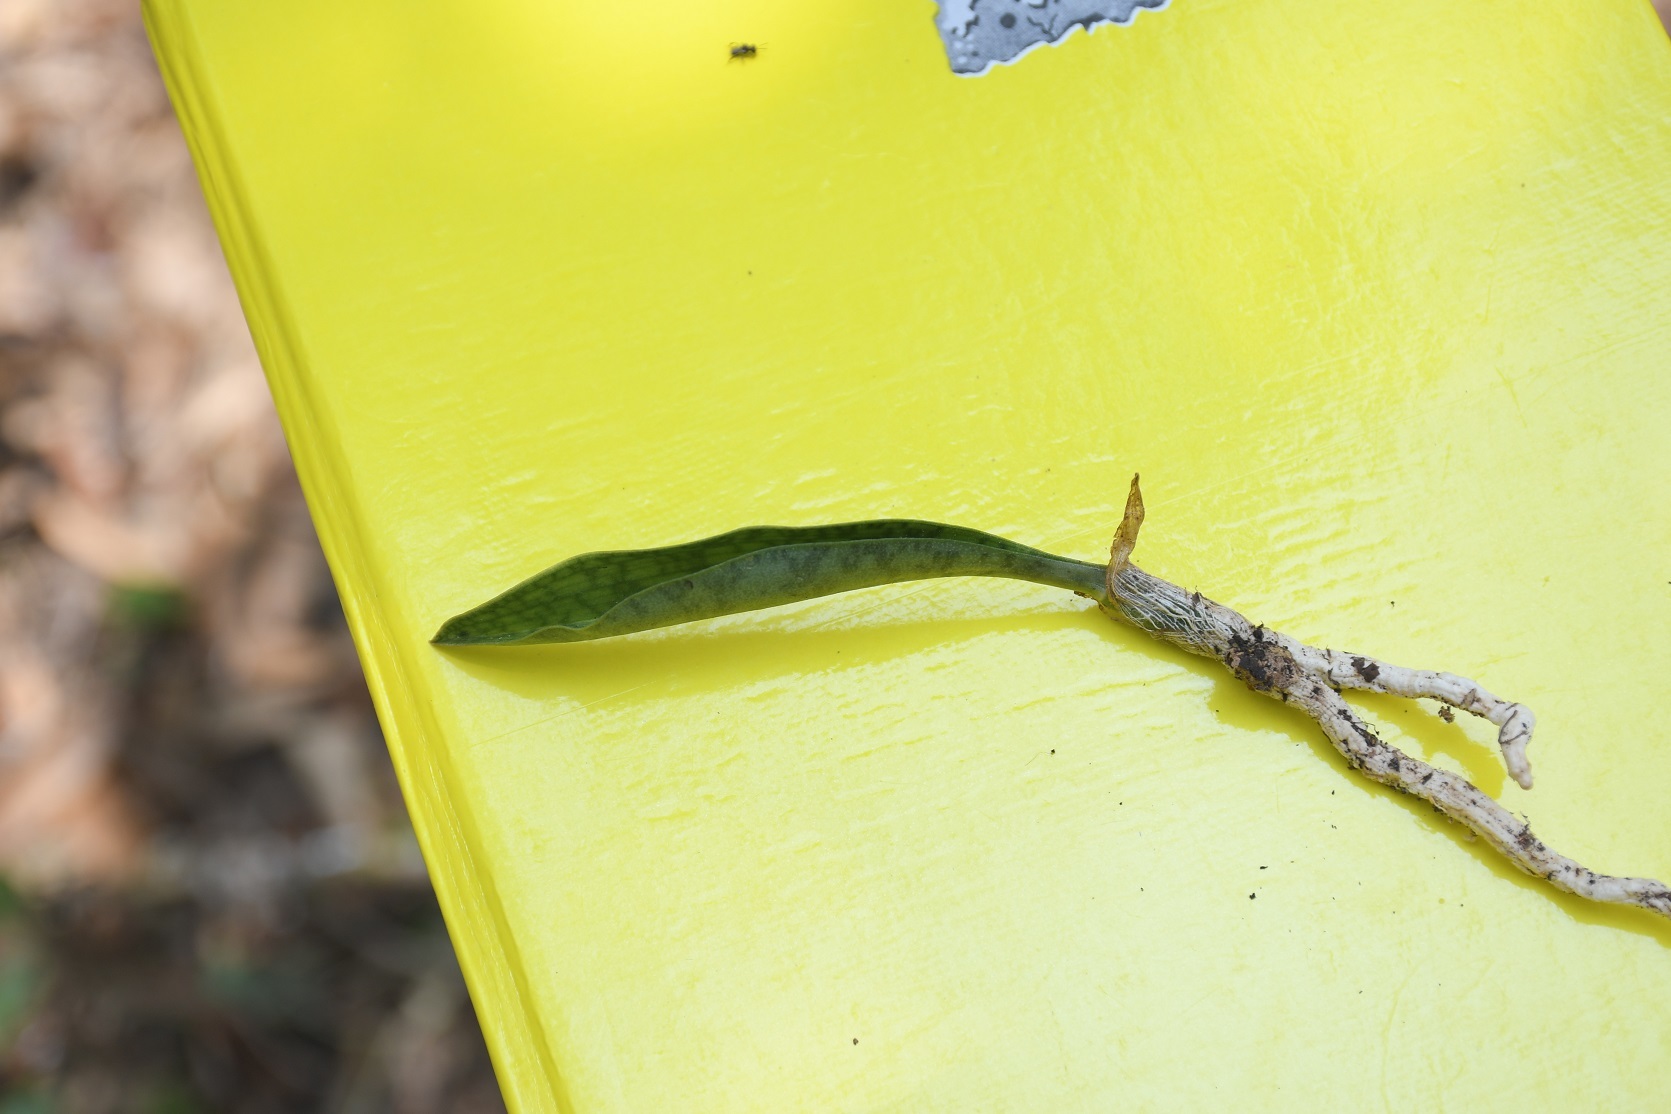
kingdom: Plantae
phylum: Tracheophyta
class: Liliopsida
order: Asparagales
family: Orchidaceae
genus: Eulophia
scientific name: Eulophia maculata
